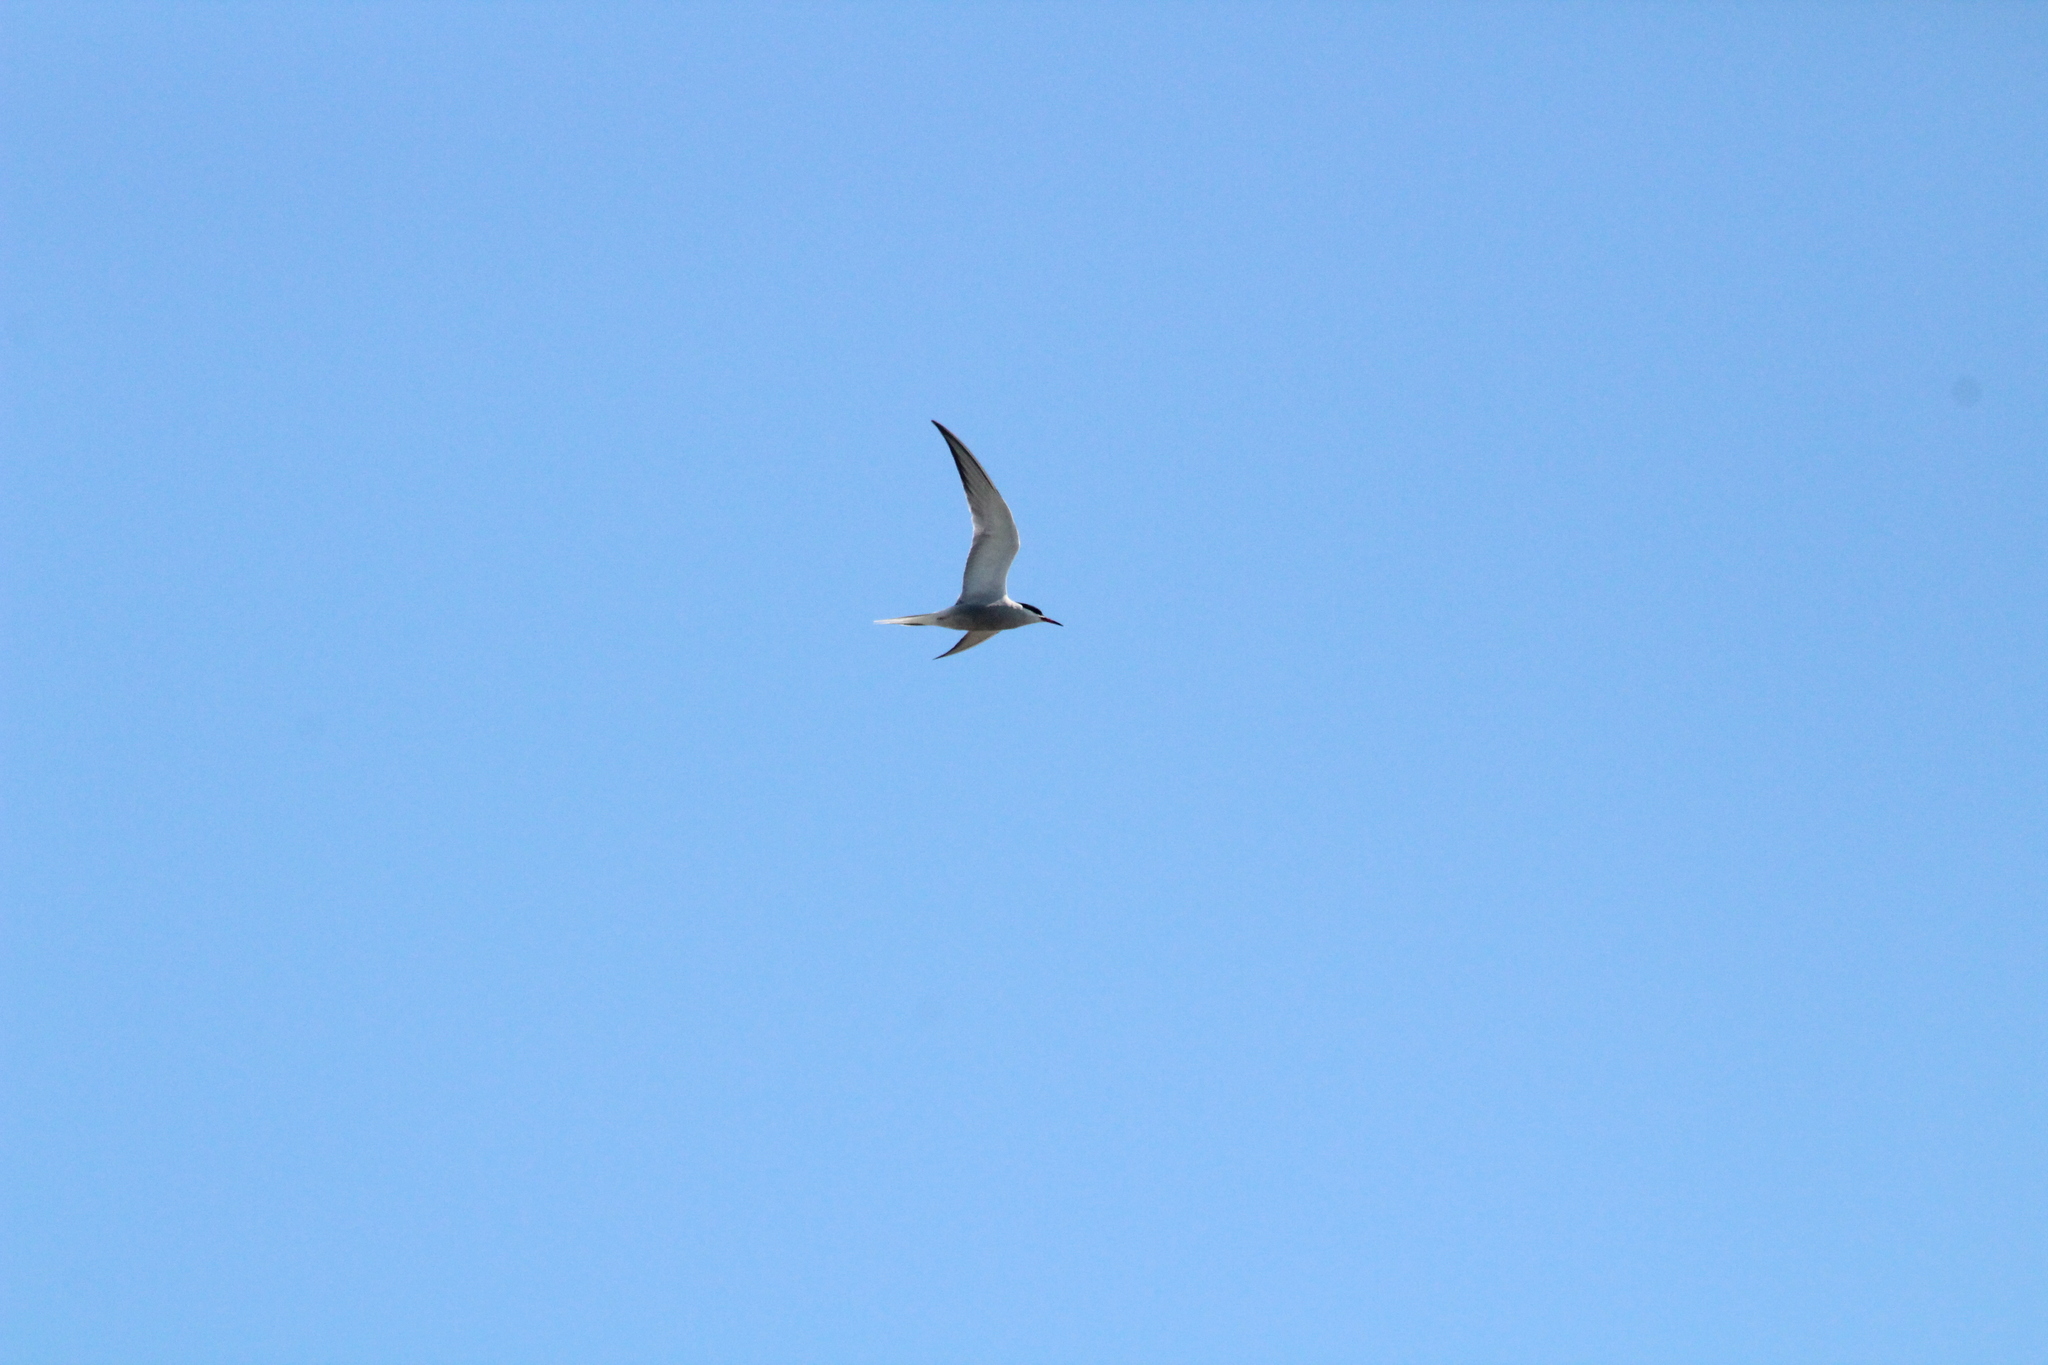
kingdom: Animalia
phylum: Chordata
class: Aves
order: Charadriiformes
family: Laridae
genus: Sterna
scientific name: Sterna hirundo
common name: Common tern
